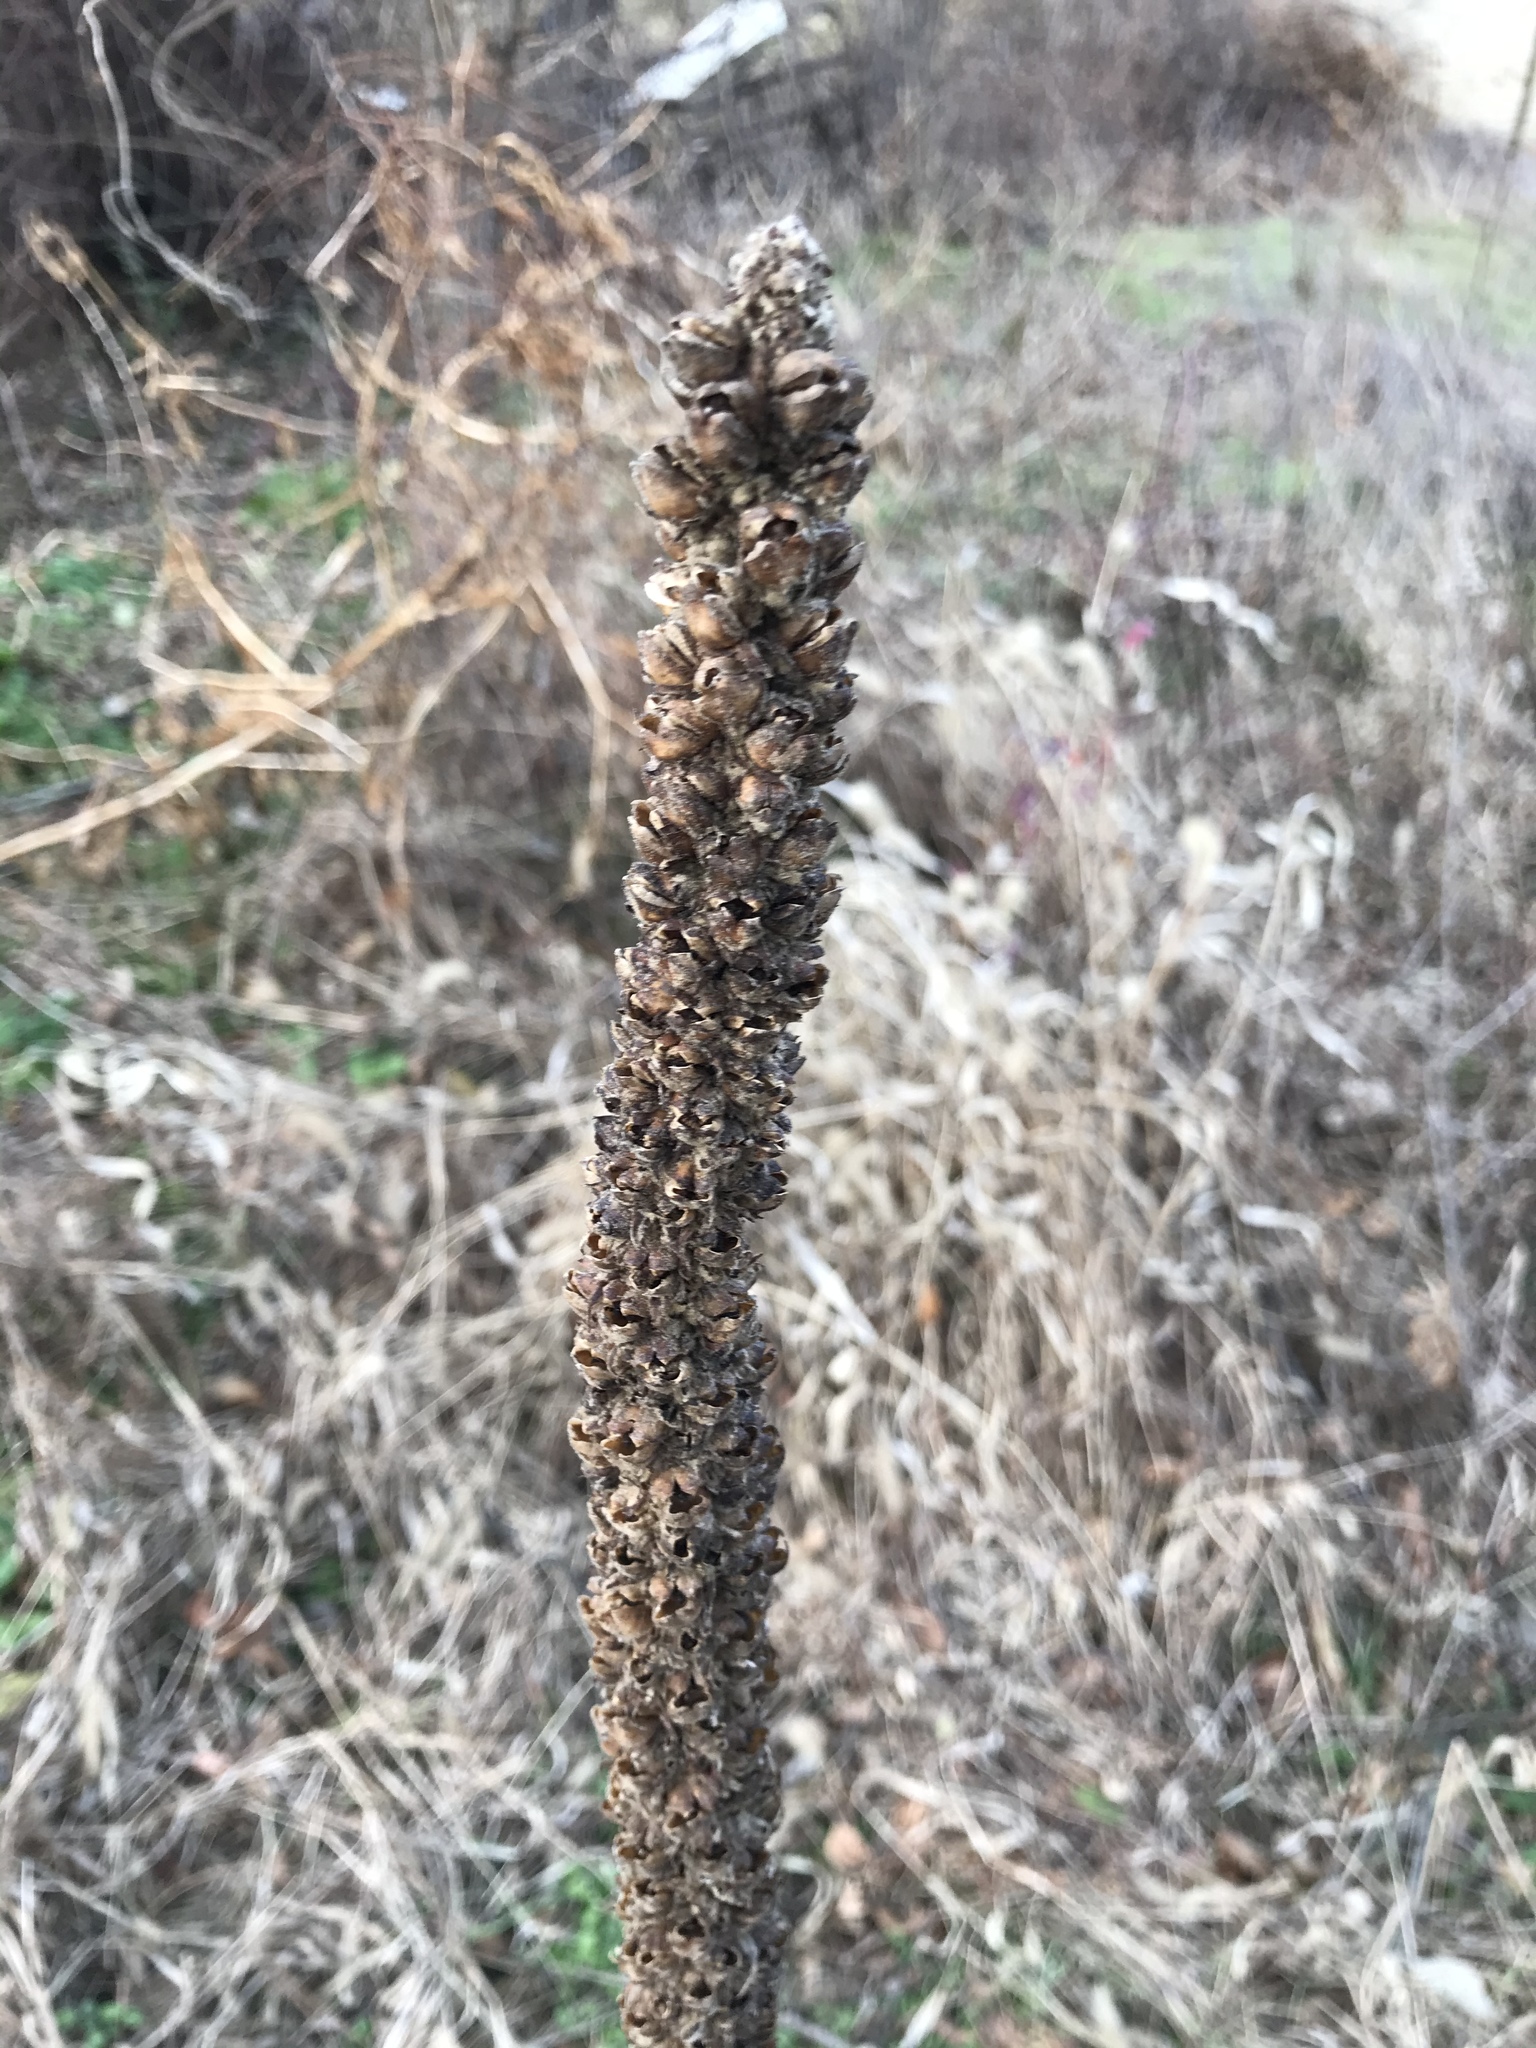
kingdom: Plantae
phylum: Tracheophyta
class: Magnoliopsida
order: Lamiales
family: Scrophulariaceae
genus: Verbascum
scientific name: Verbascum thapsus
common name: Common mullein
